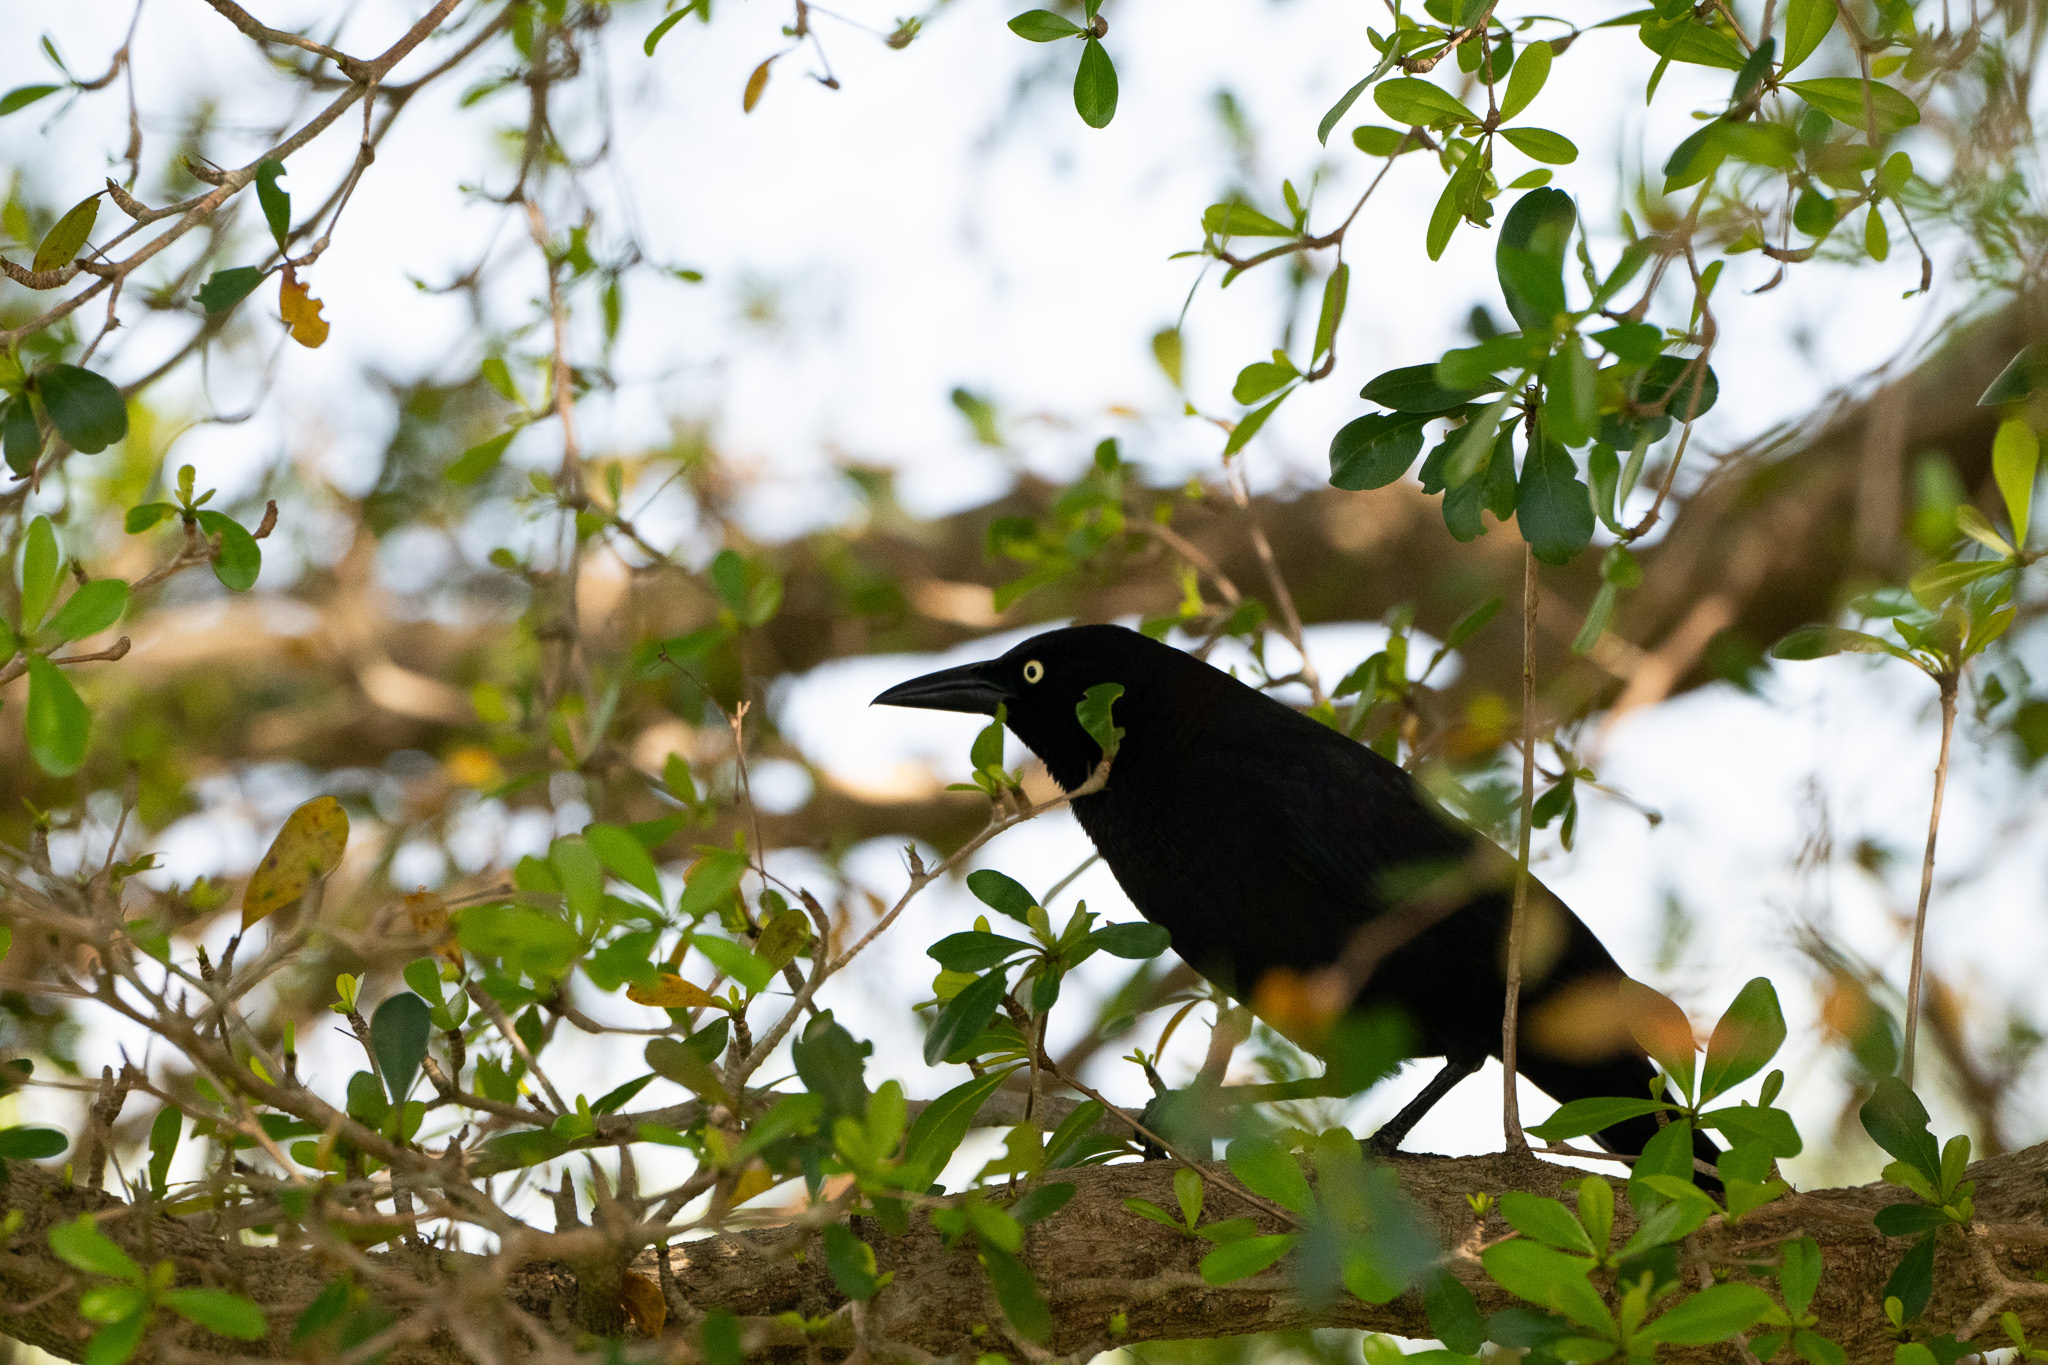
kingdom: Animalia
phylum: Chordata
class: Aves
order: Passeriformes
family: Icteridae
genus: Quiscalus
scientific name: Quiscalus quiscula
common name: Common grackle
